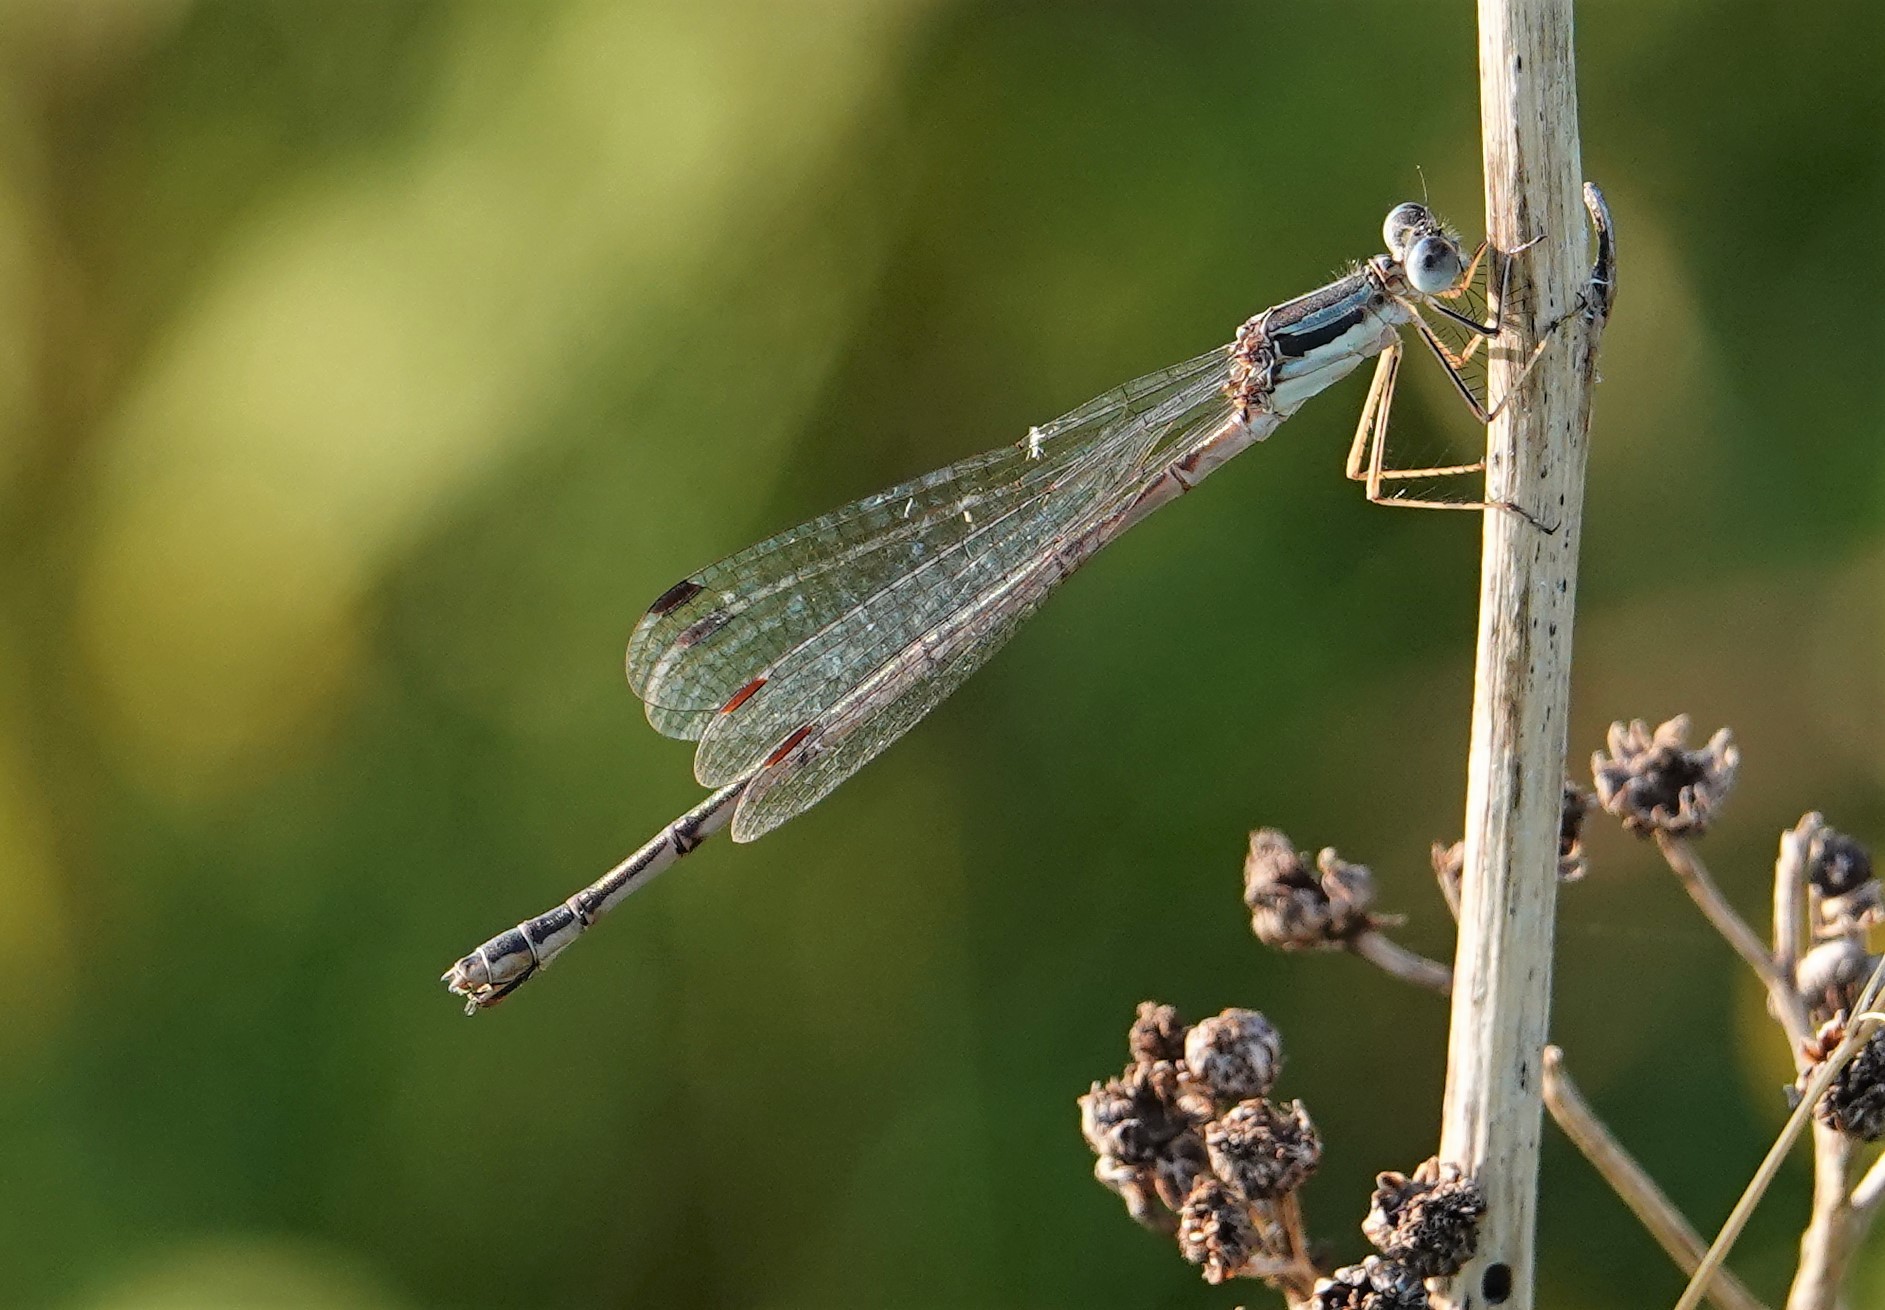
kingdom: Animalia
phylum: Arthropoda
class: Insecta
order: Odonata
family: Lestidae
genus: Lestes
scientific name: Lestes rectangularis
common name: Slender spreadwing
